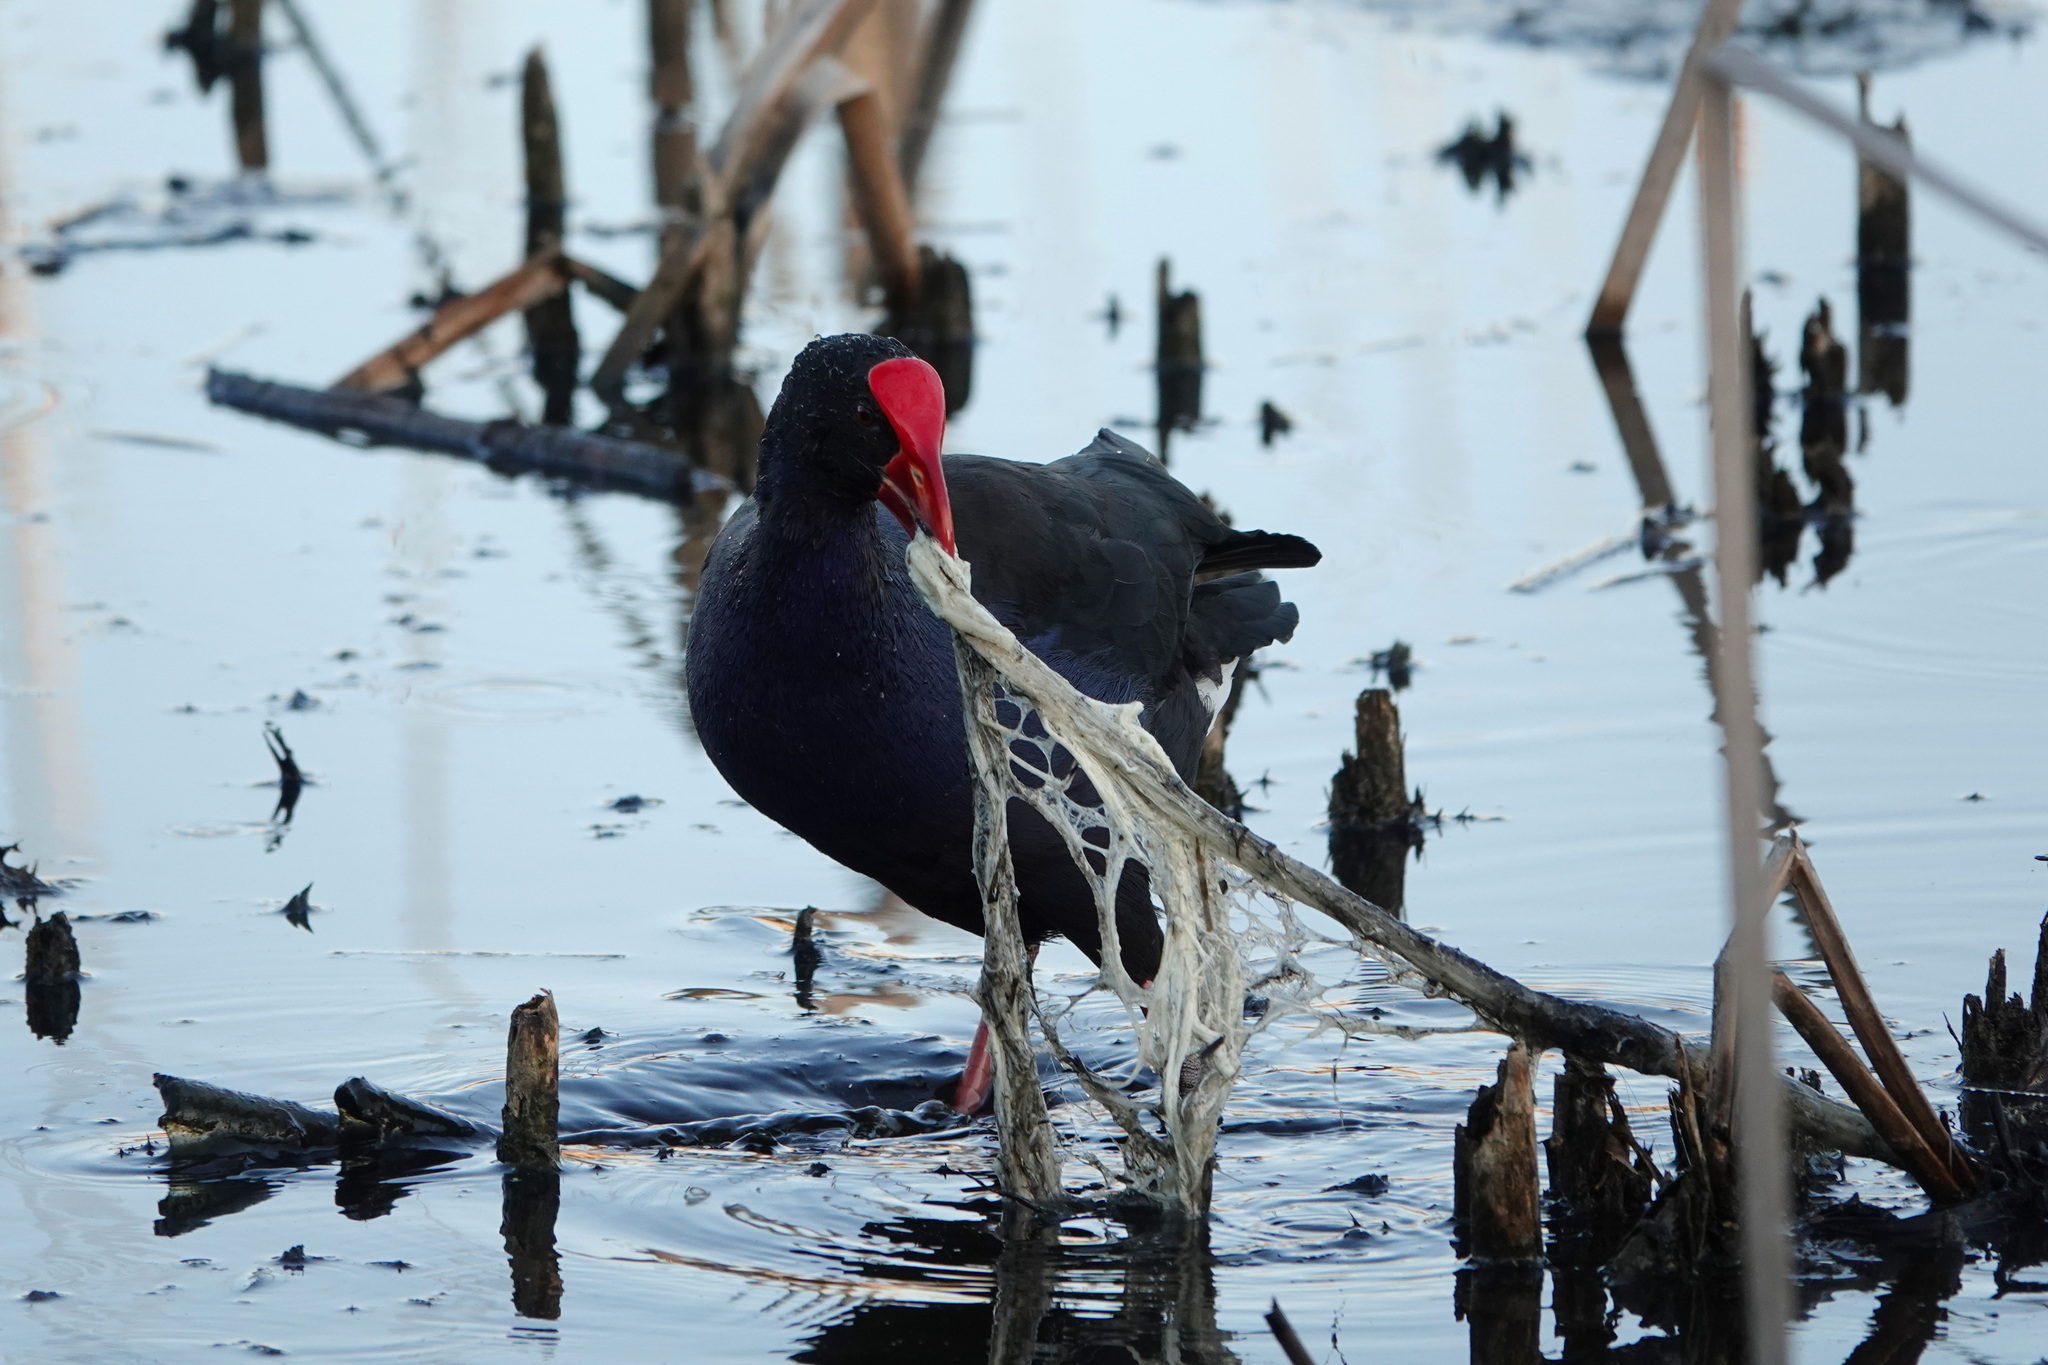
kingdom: Animalia
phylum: Chordata
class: Aves
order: Gruiformes
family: Rallidae
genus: Porphyrio
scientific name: Porphyrio melanotus
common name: Australasian swamphen
